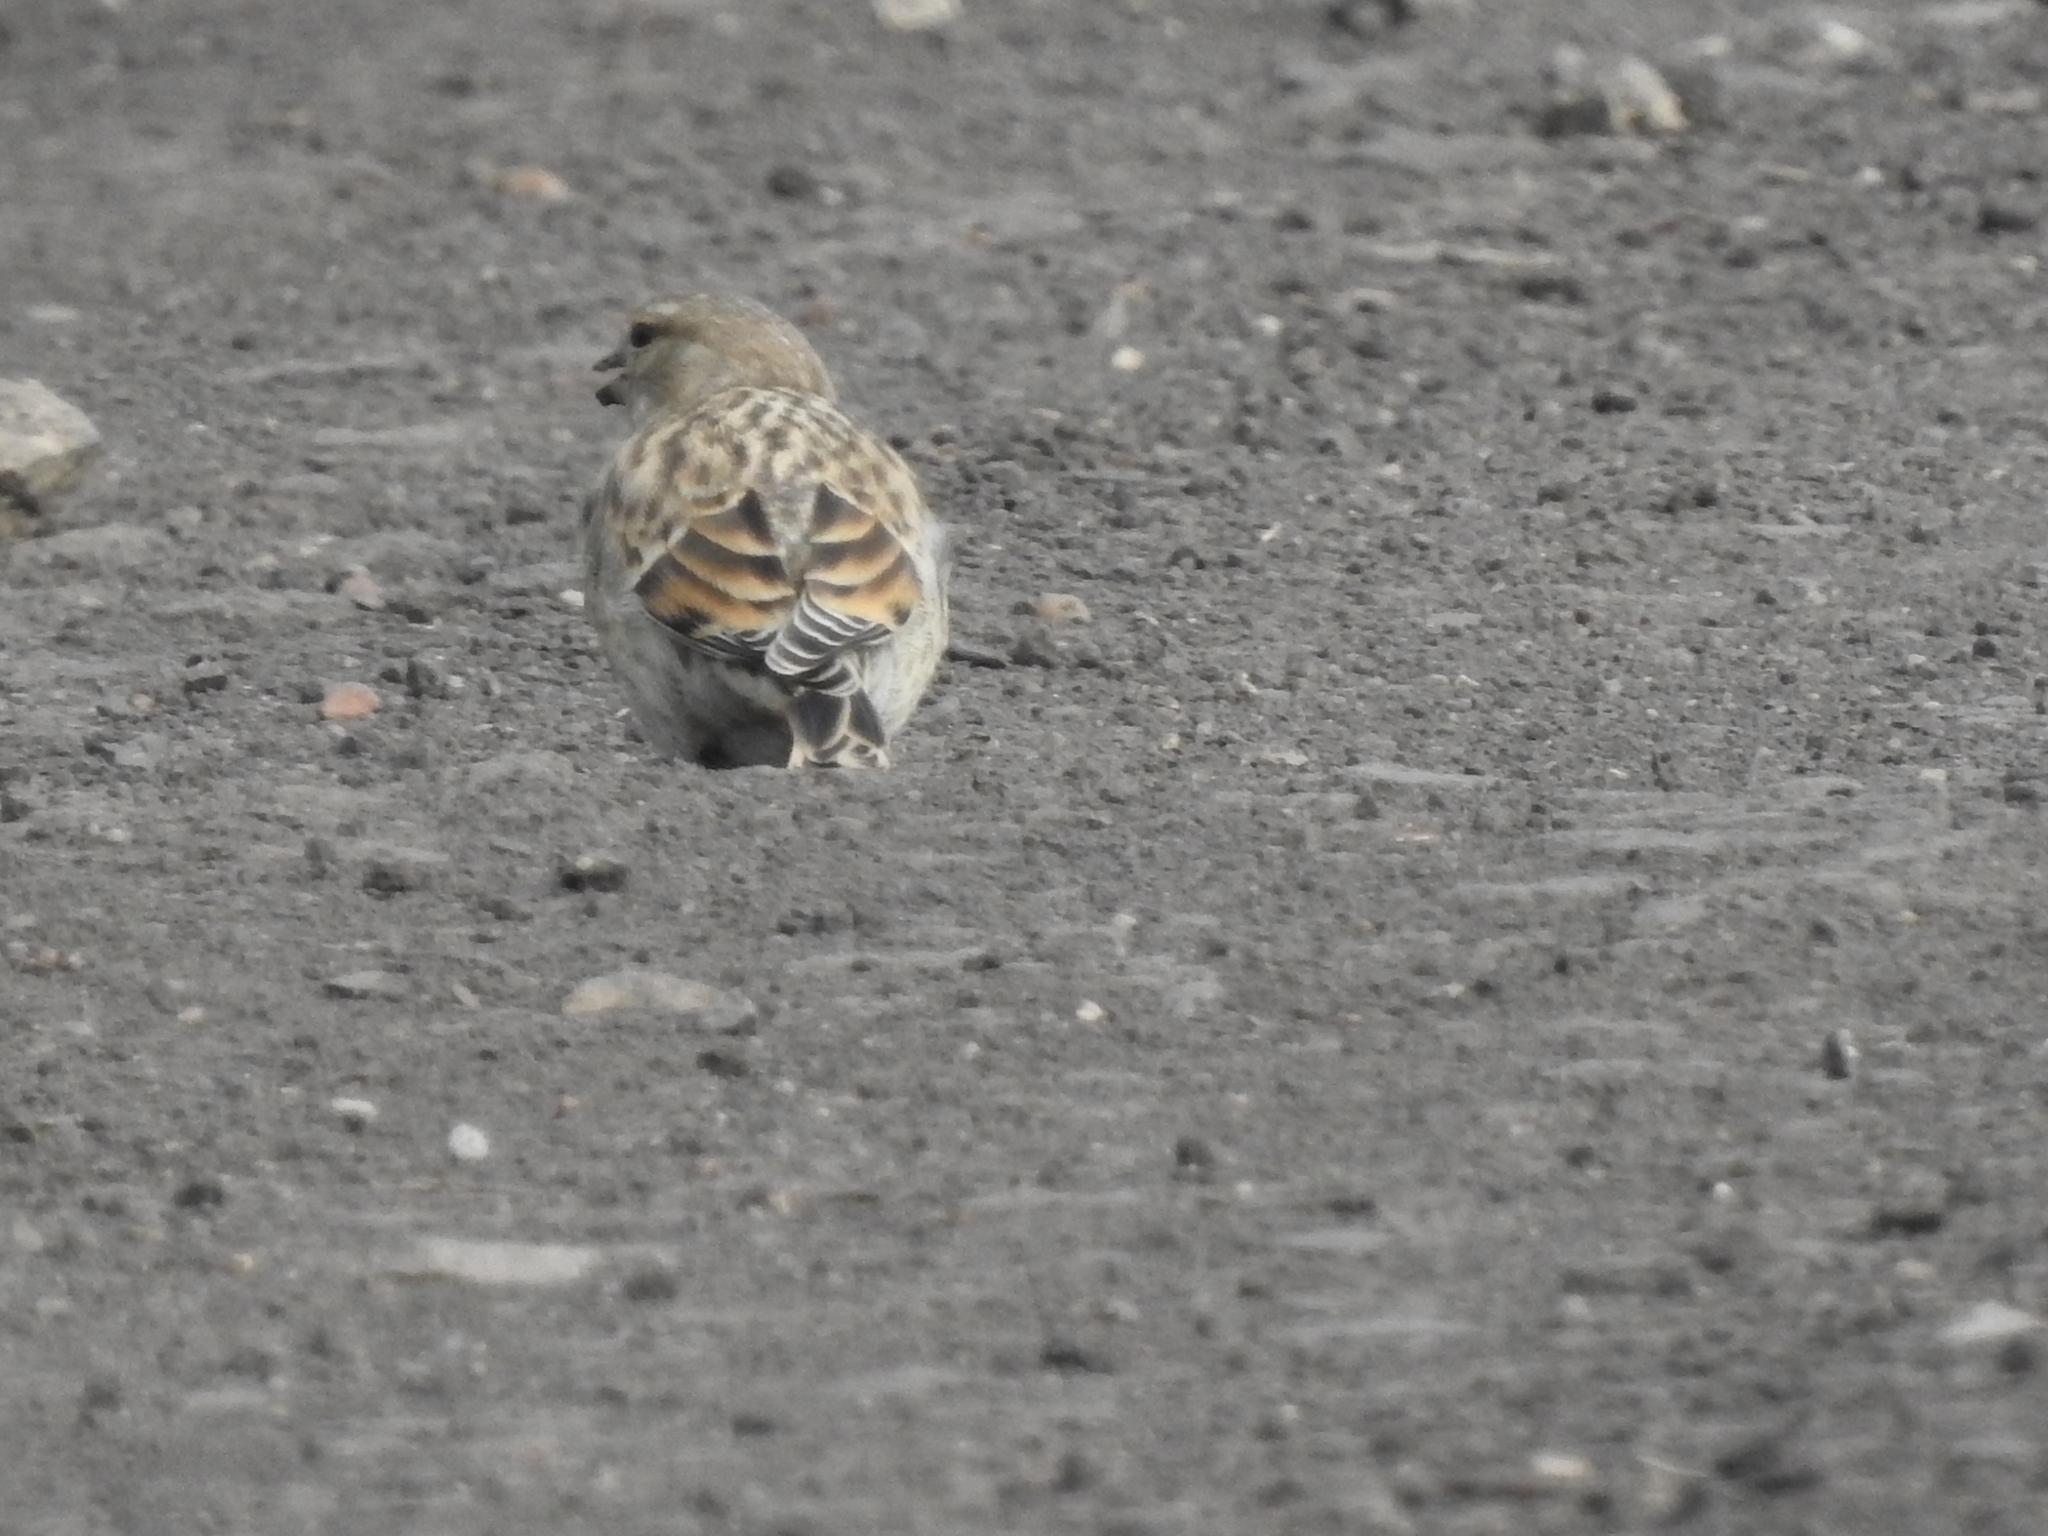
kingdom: Animalia
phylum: Chordata
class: Aves
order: Passeriformes
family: Fringillidae
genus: Linaria
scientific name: Linaria cannabina
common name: Common linnet
